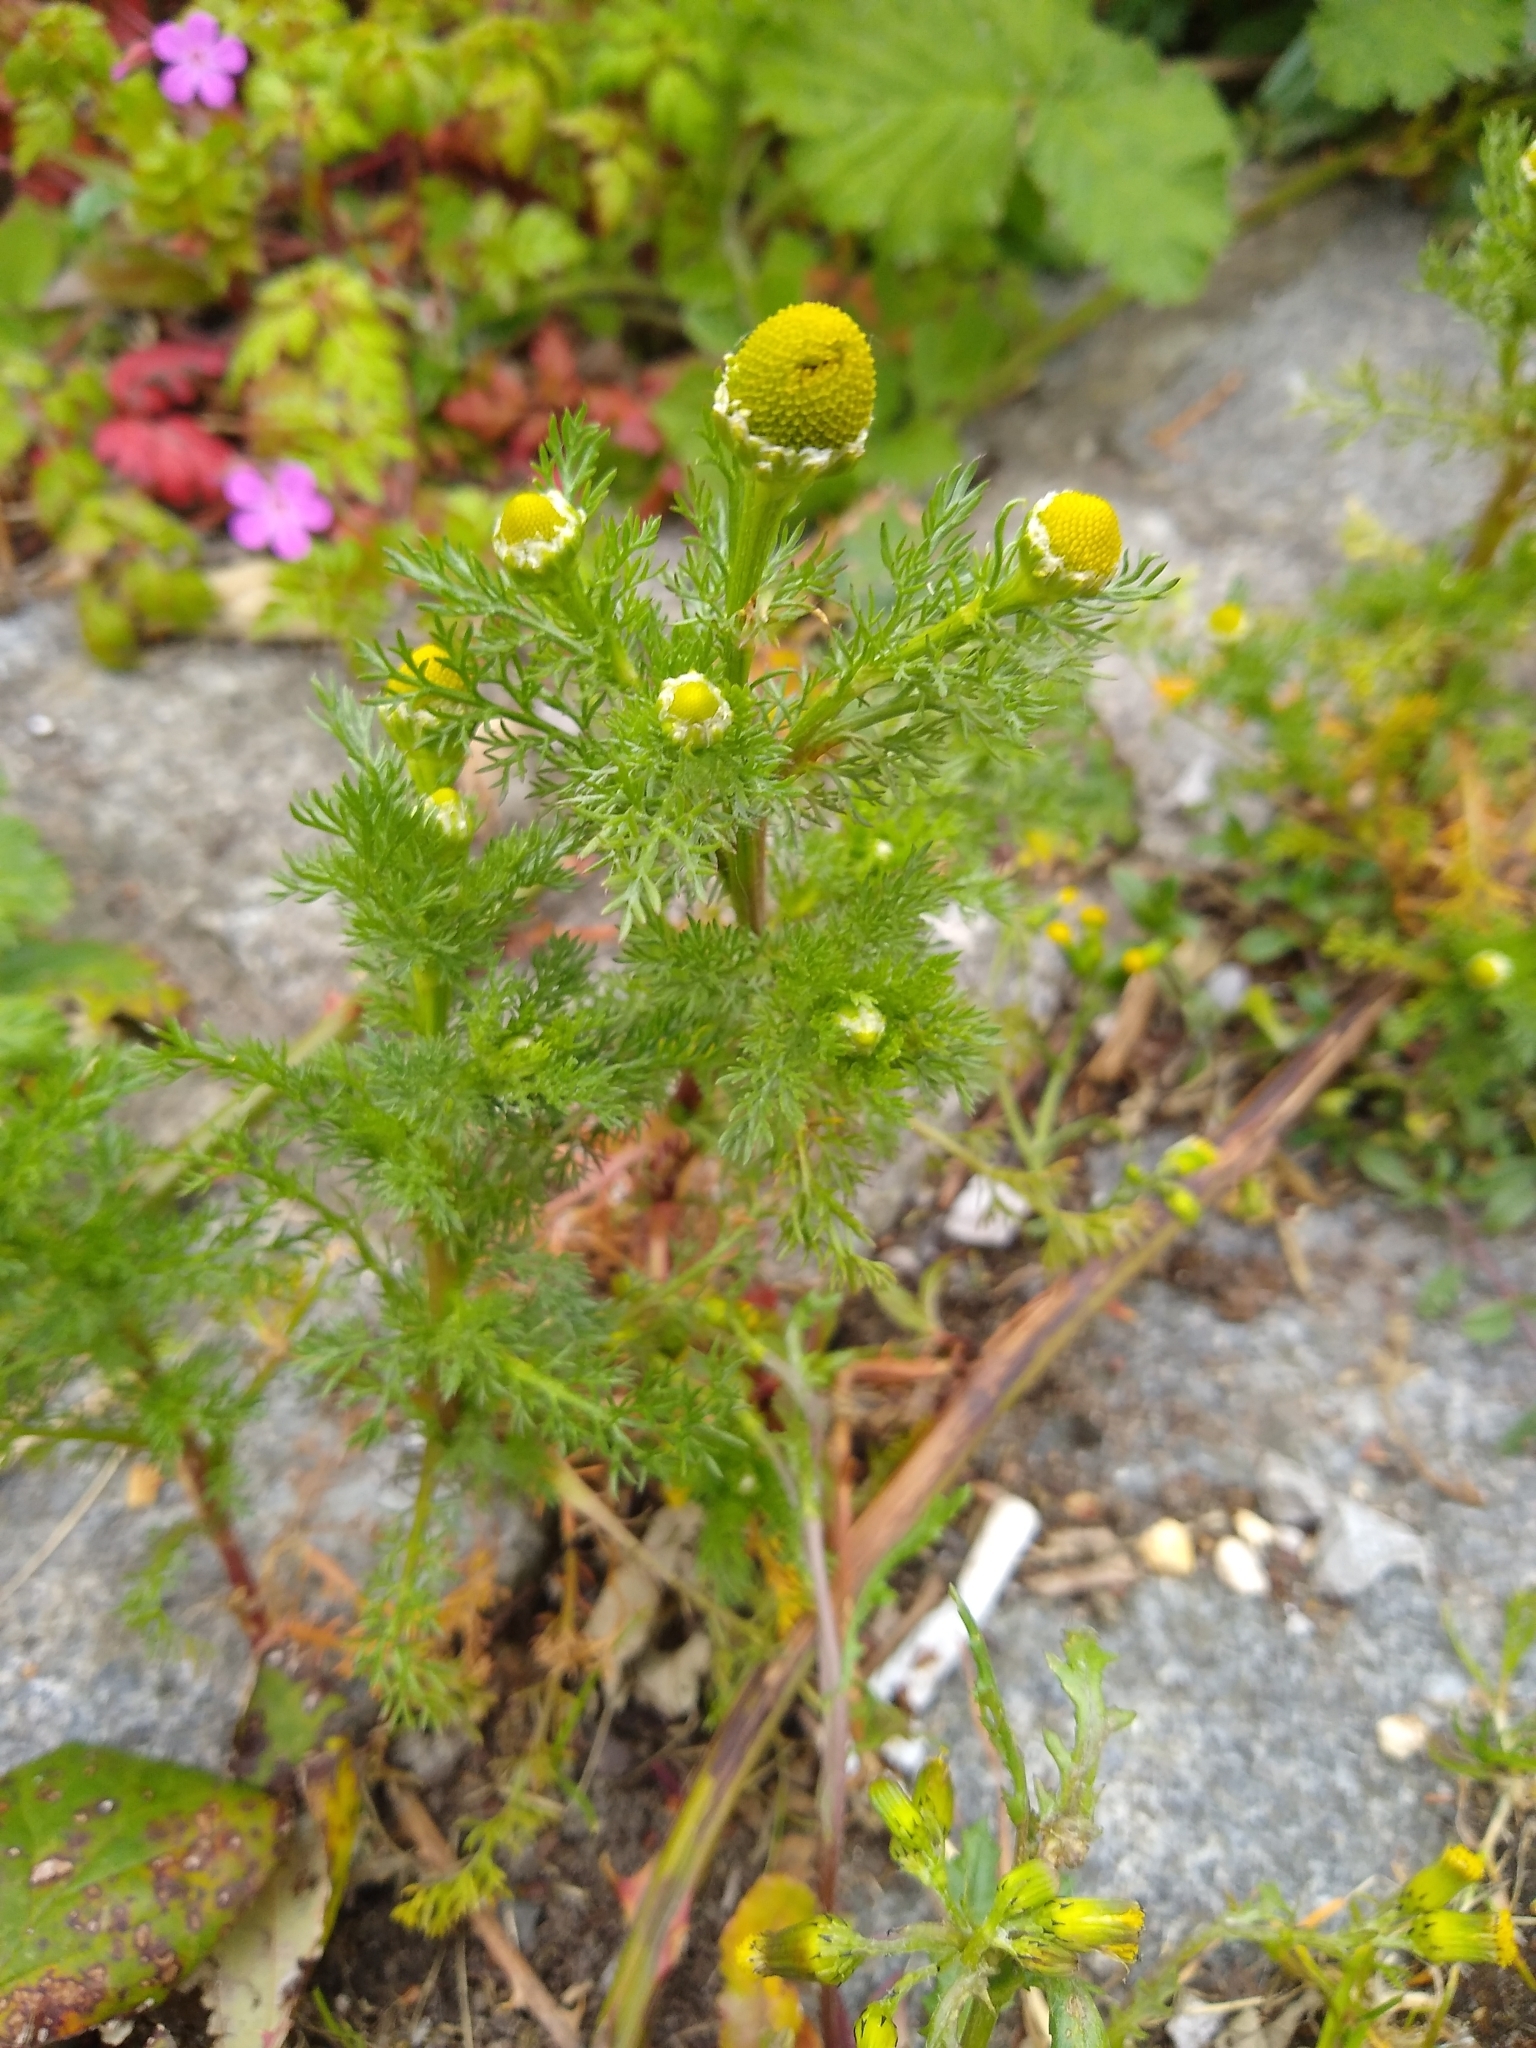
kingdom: Plantae
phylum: Tracheophyta
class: Magnoliopsida
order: Asterales
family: Asteraceae
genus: Matricaria
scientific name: Matricaria discoidea
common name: Disc mayweed
